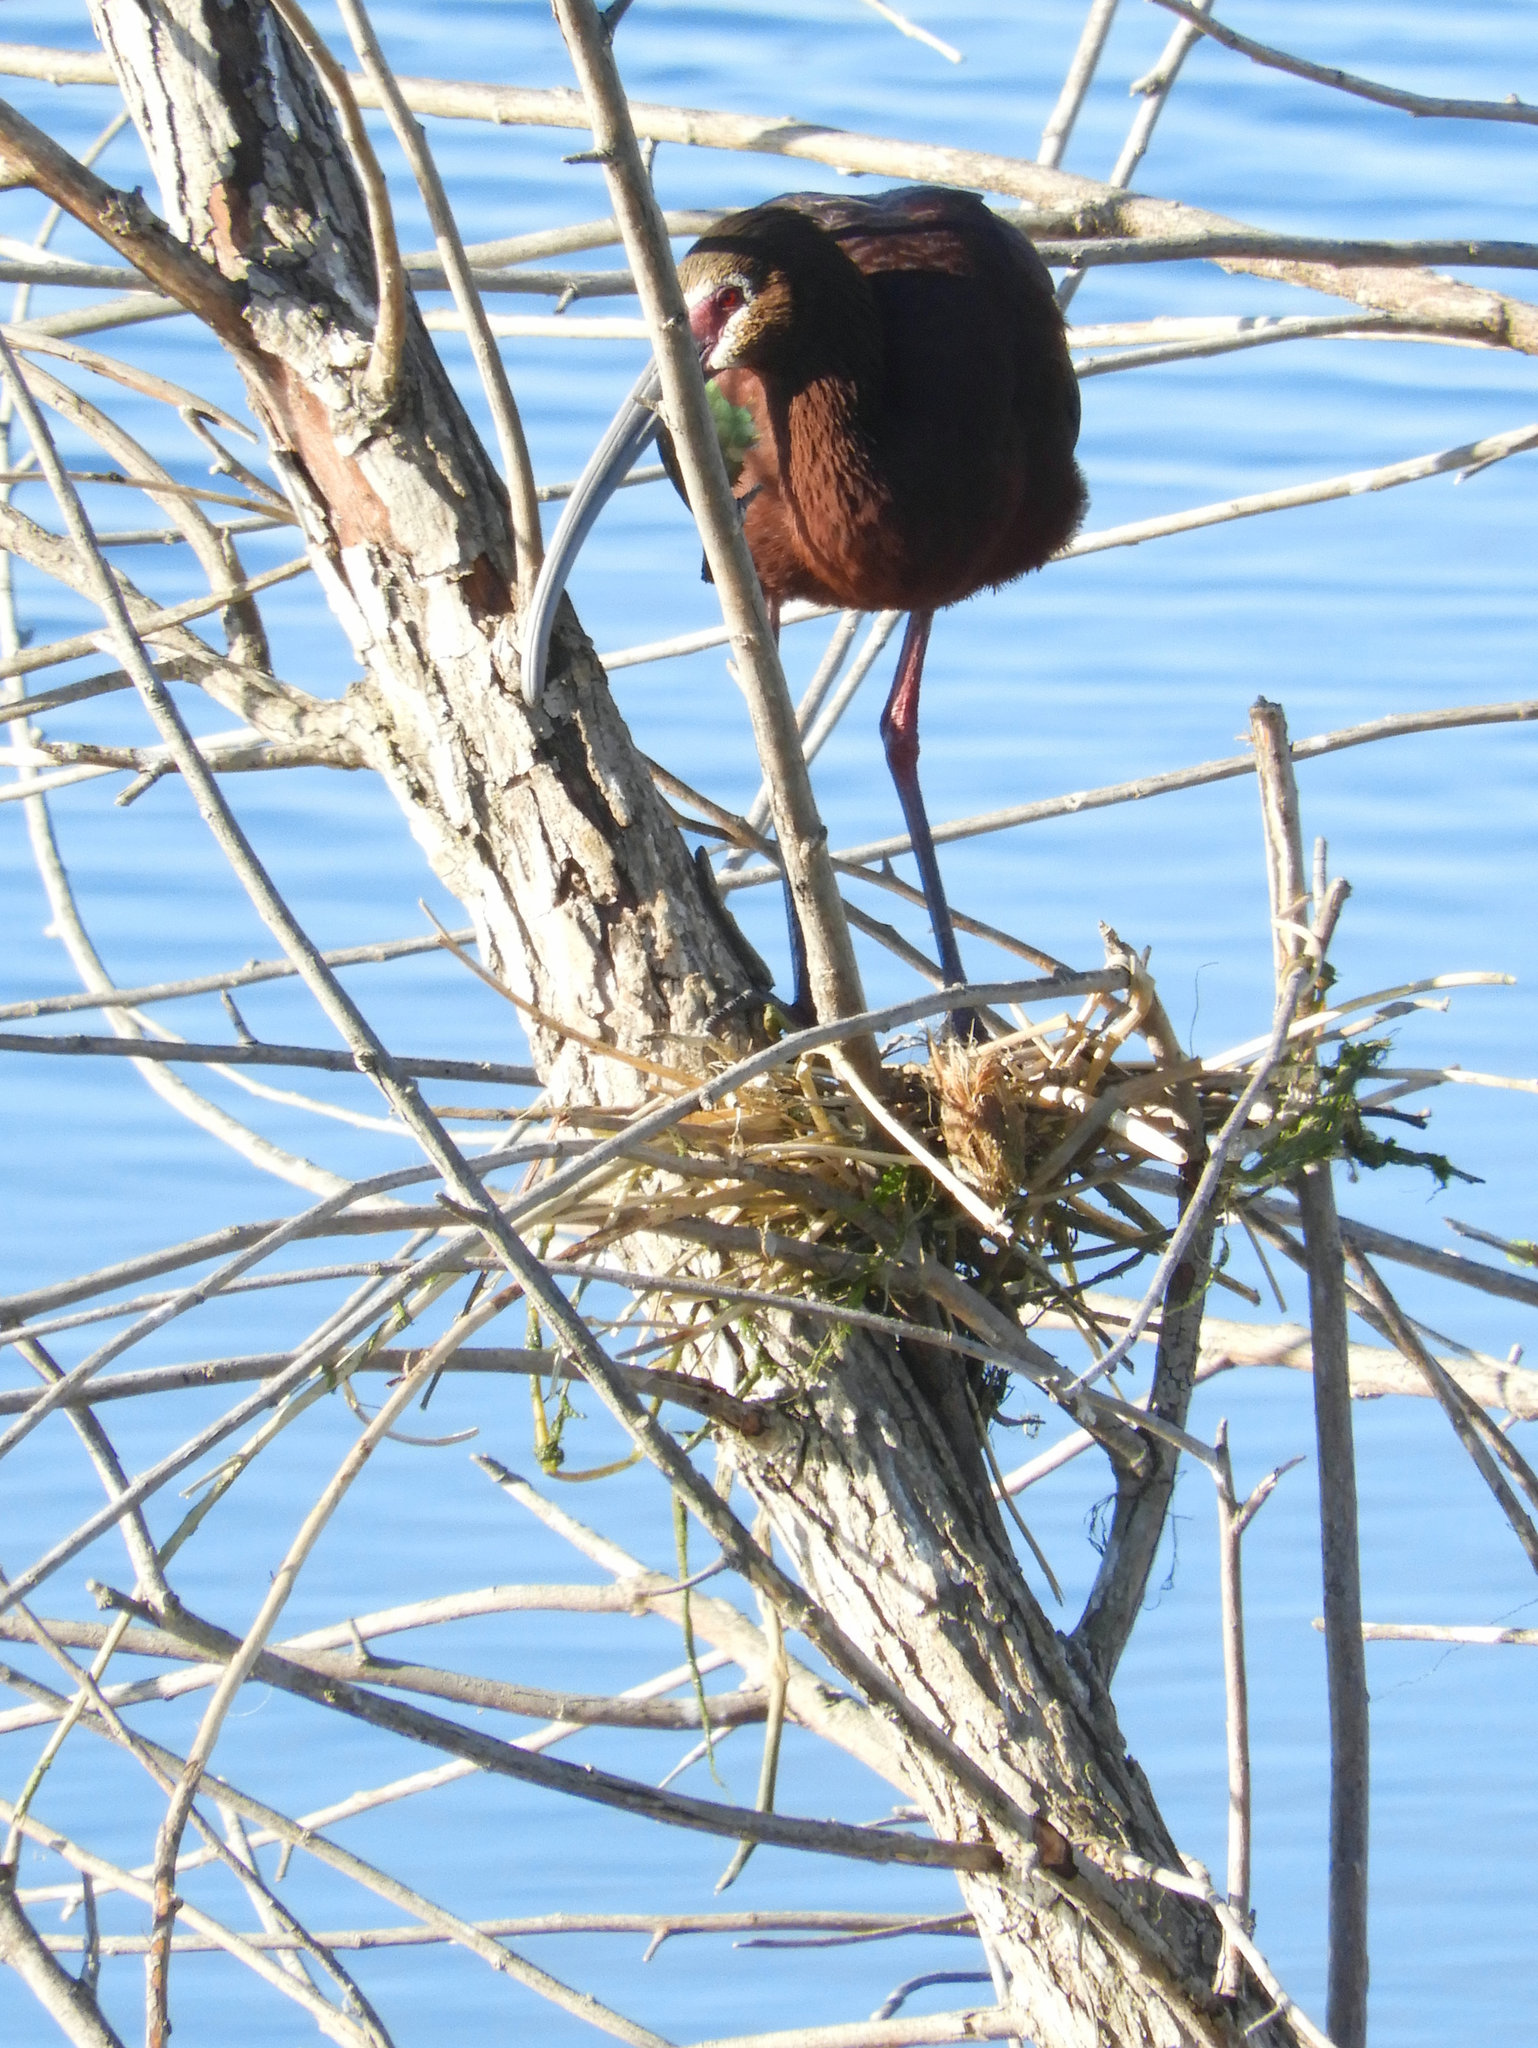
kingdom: Animalia
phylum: Chordata
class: Aves
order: Pelecaniformes
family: Threskiornithidae
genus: Plegadis
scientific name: Plegadis chihi
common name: White-faced ibis
